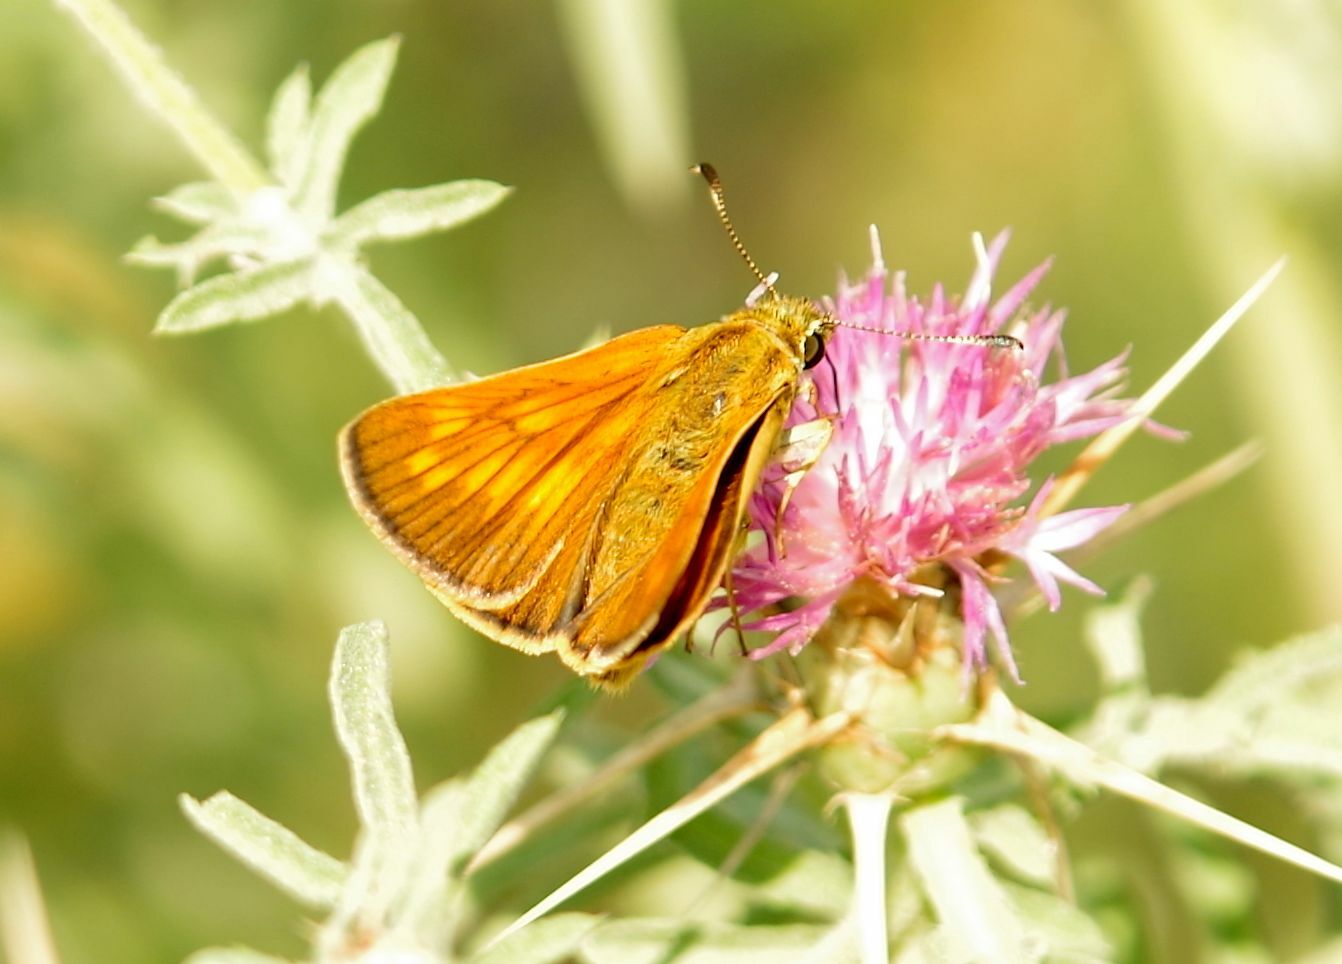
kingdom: Animalia
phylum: Arthropoda
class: Insecta
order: Lepidoptera
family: Hesperiidae
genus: Ochlodes
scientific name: Ochlodes venata
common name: Large skipper
